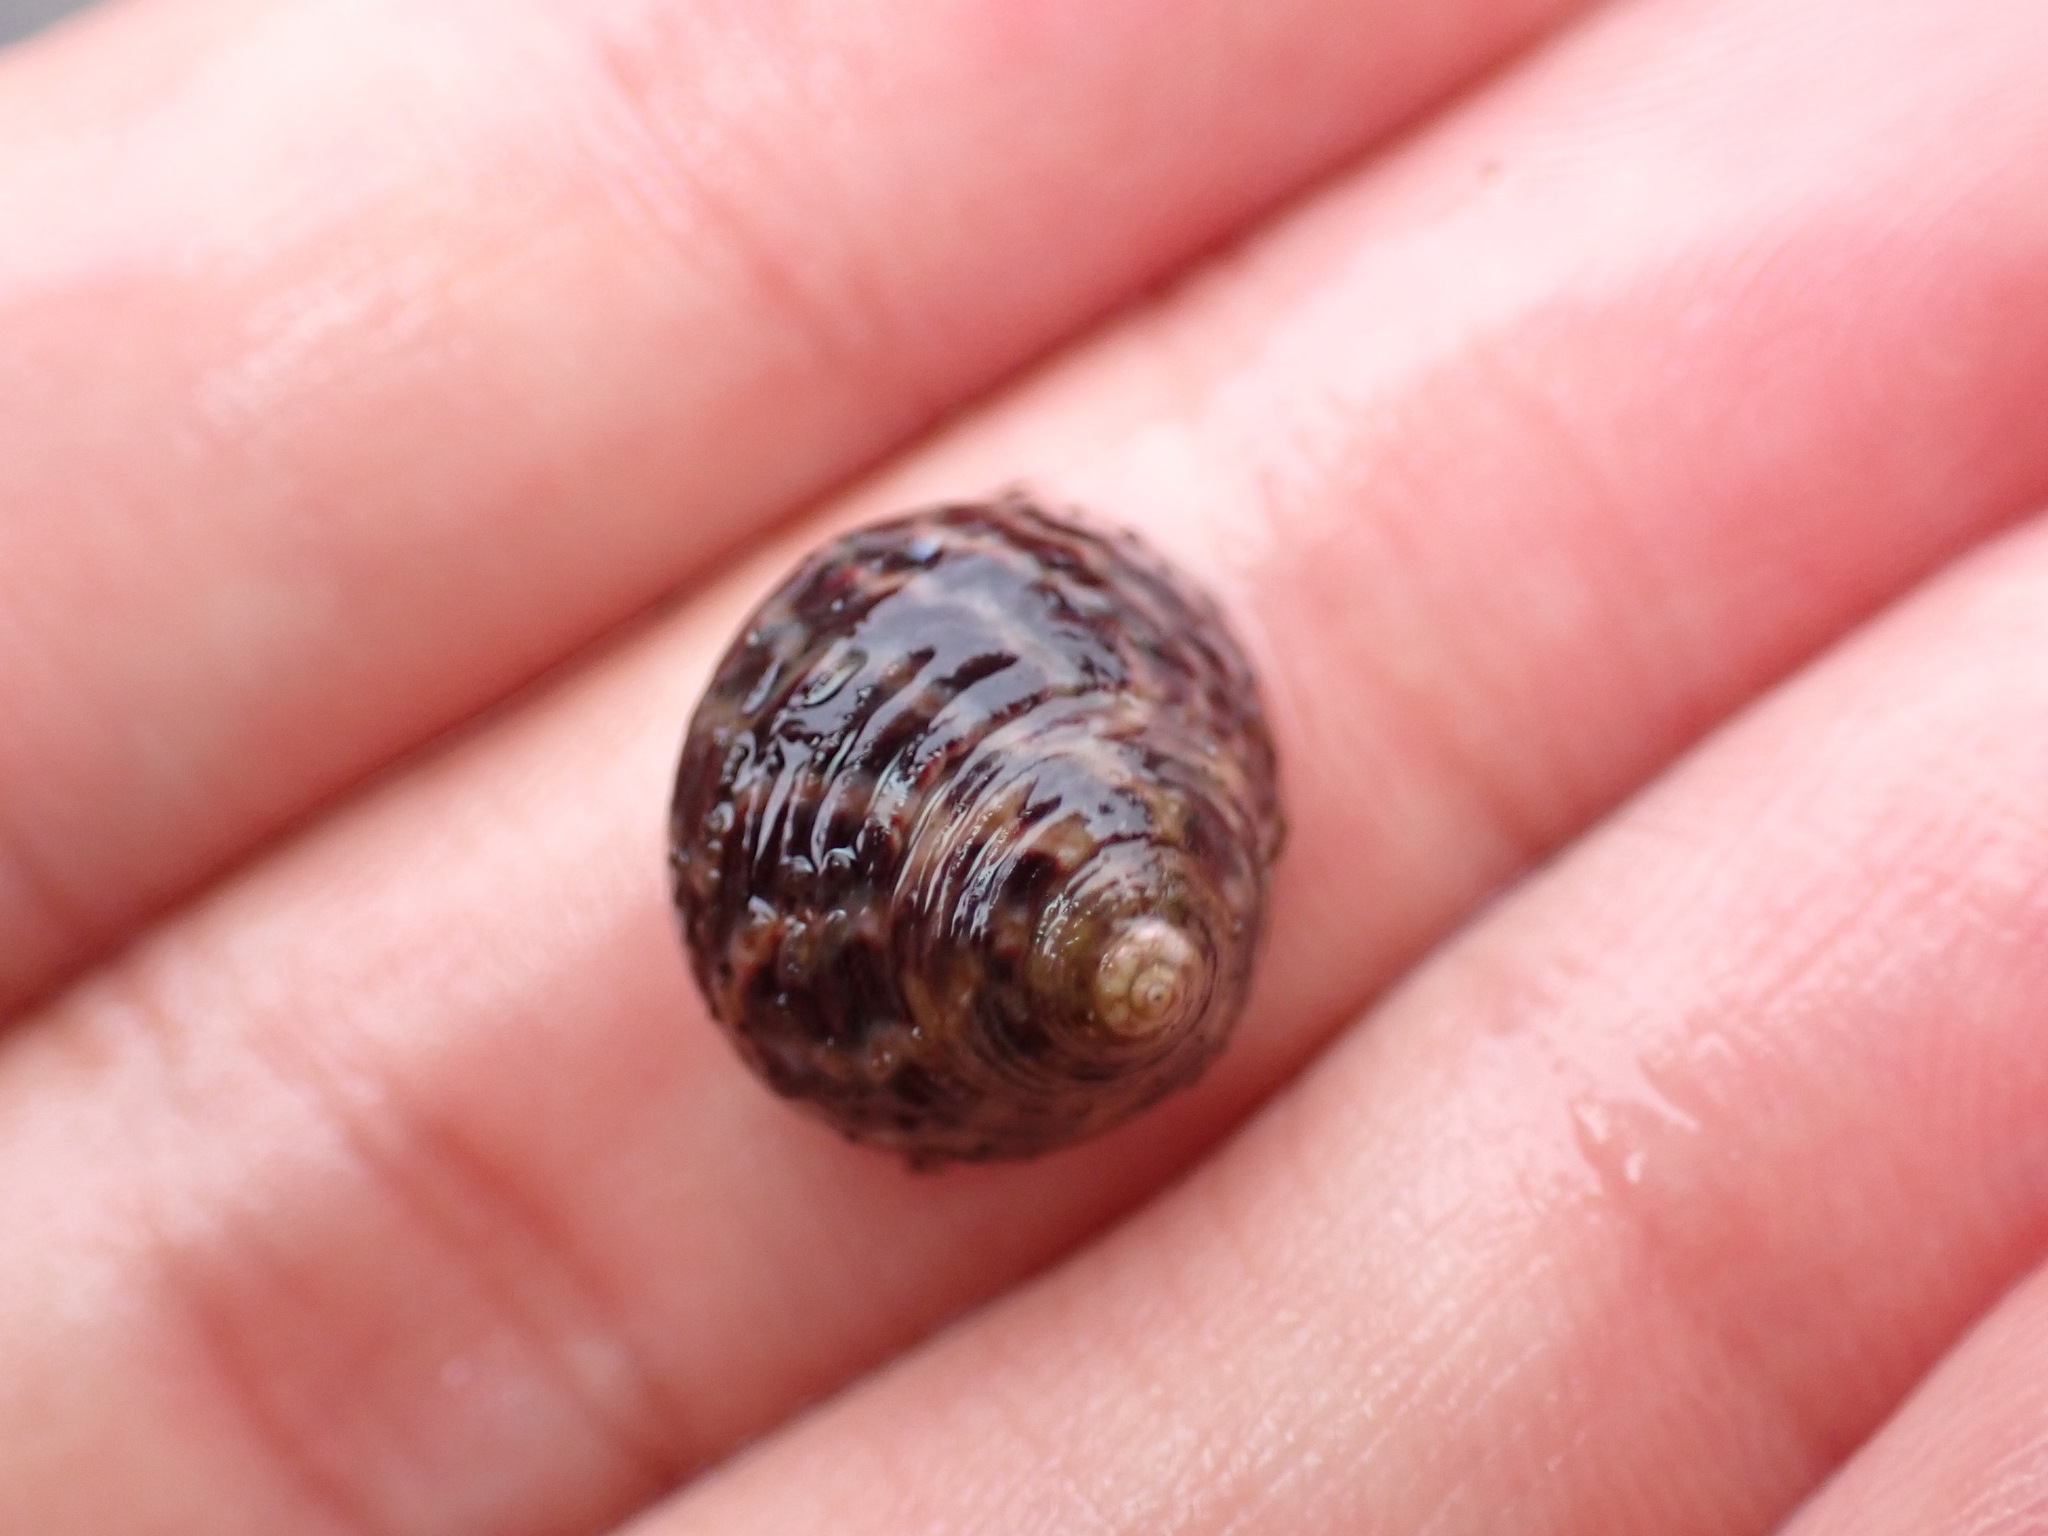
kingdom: Animalia
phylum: Mollusca
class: Gastropoda
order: Trochida
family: Trochidae
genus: Phorcus
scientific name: Phorcus sauciatus
